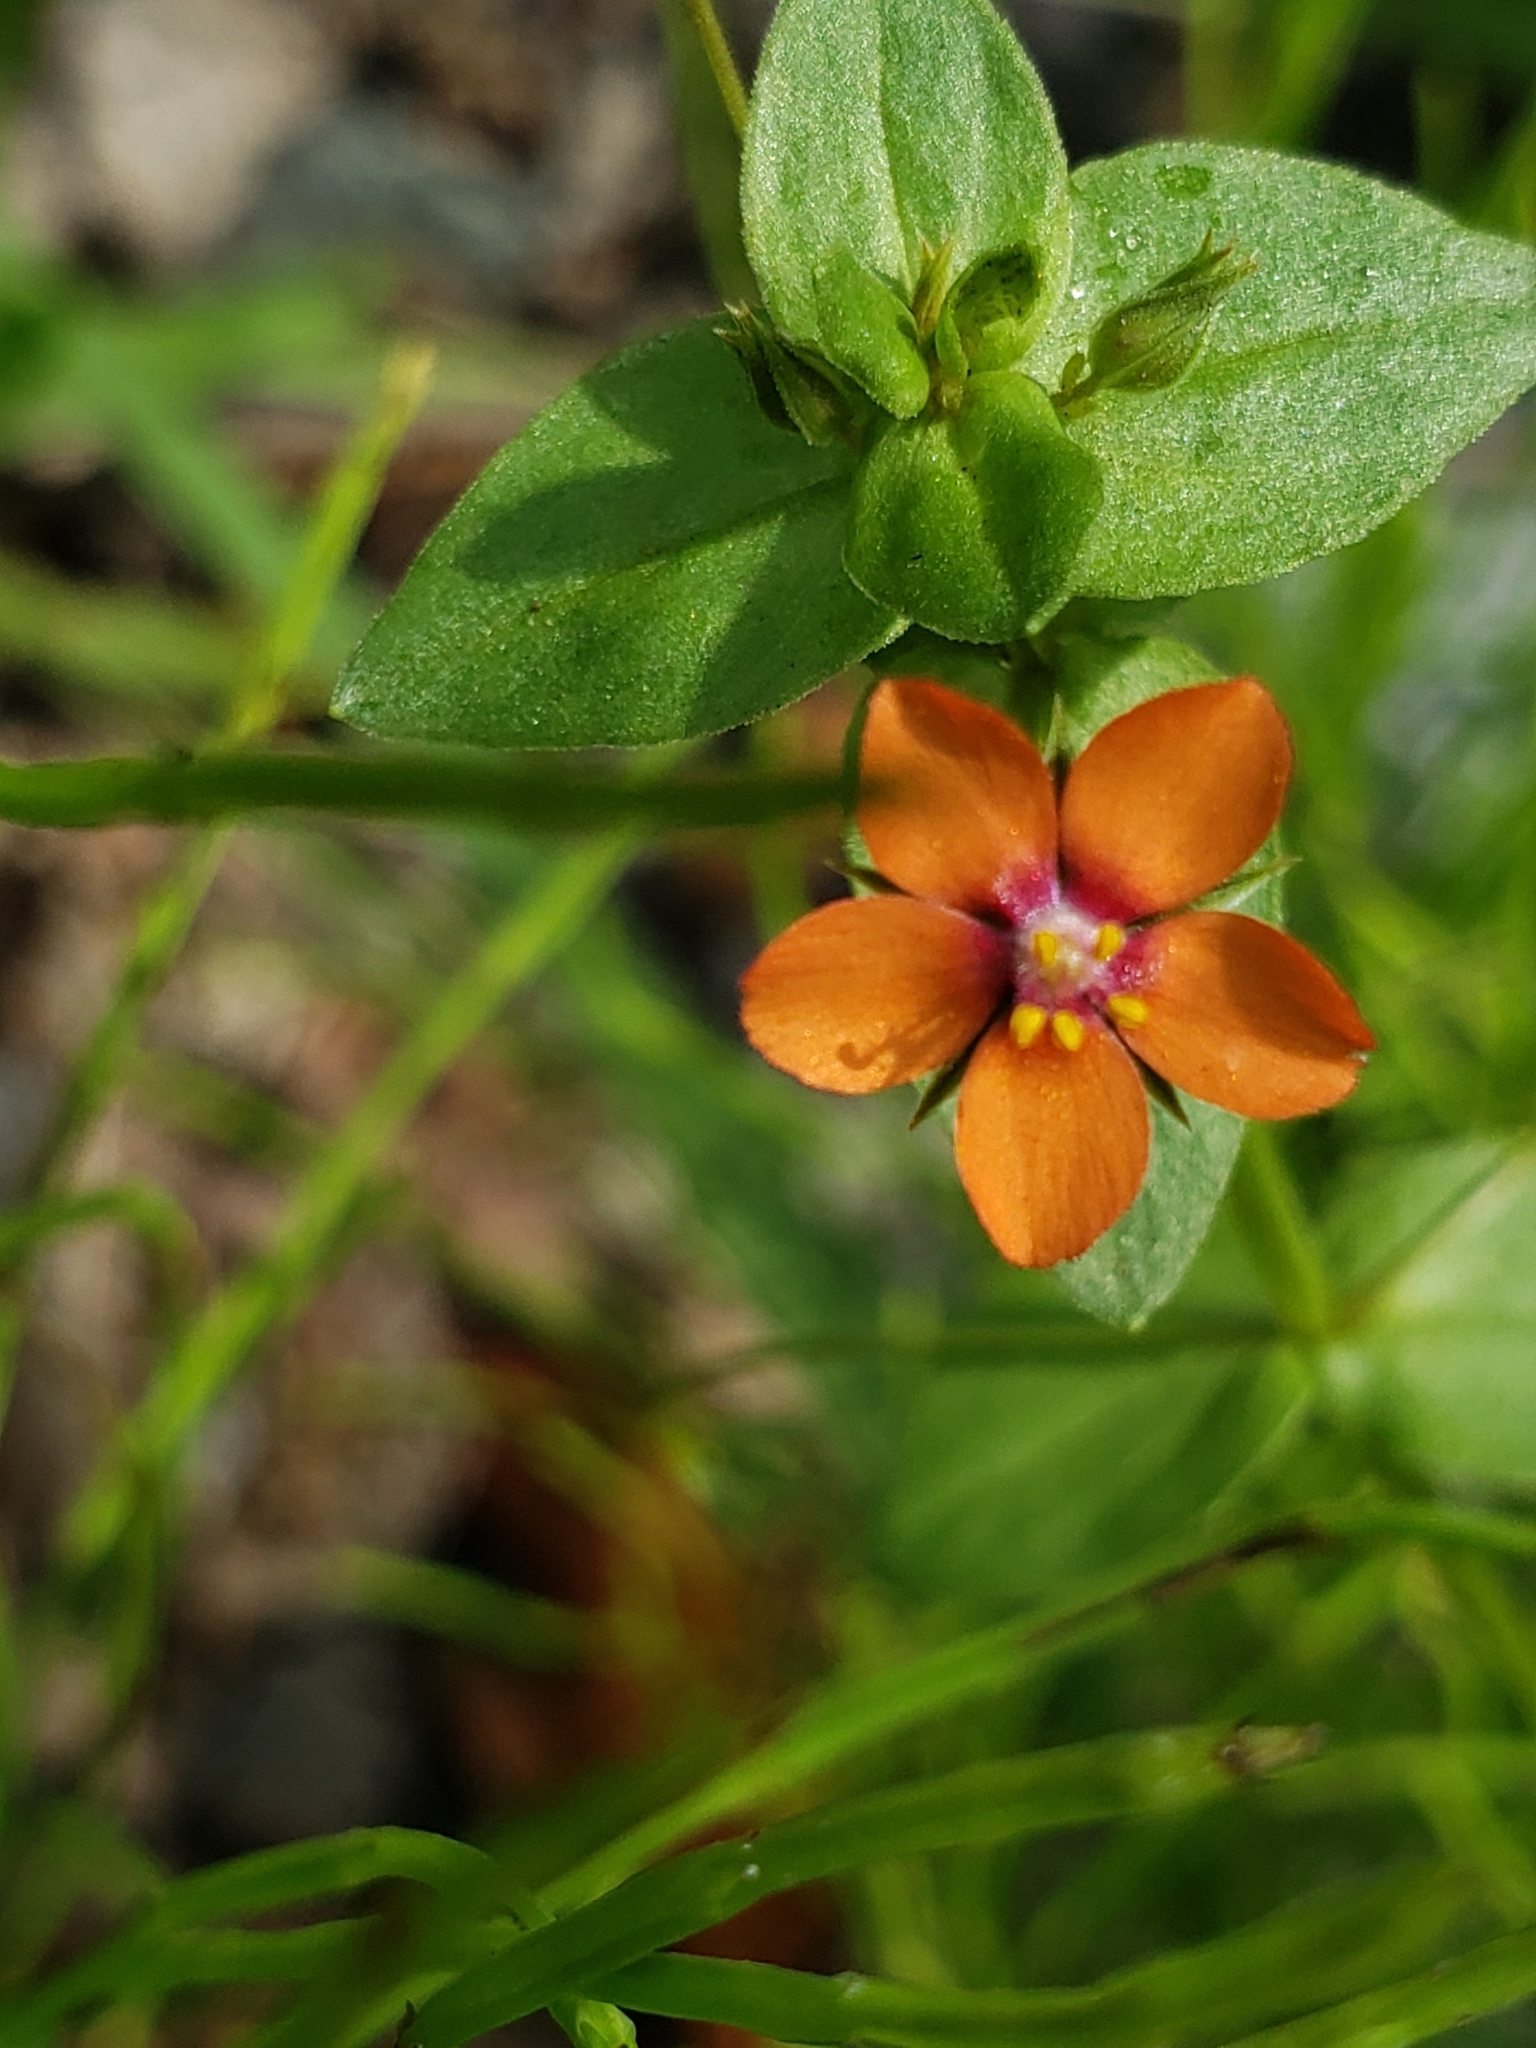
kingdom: Plantae
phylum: Tracheophyta
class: Magnoliopsida
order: Ericales
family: Primulaceae
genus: Lysimachia
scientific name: Lysimachia arvensis
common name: Scarlet pimpernel
